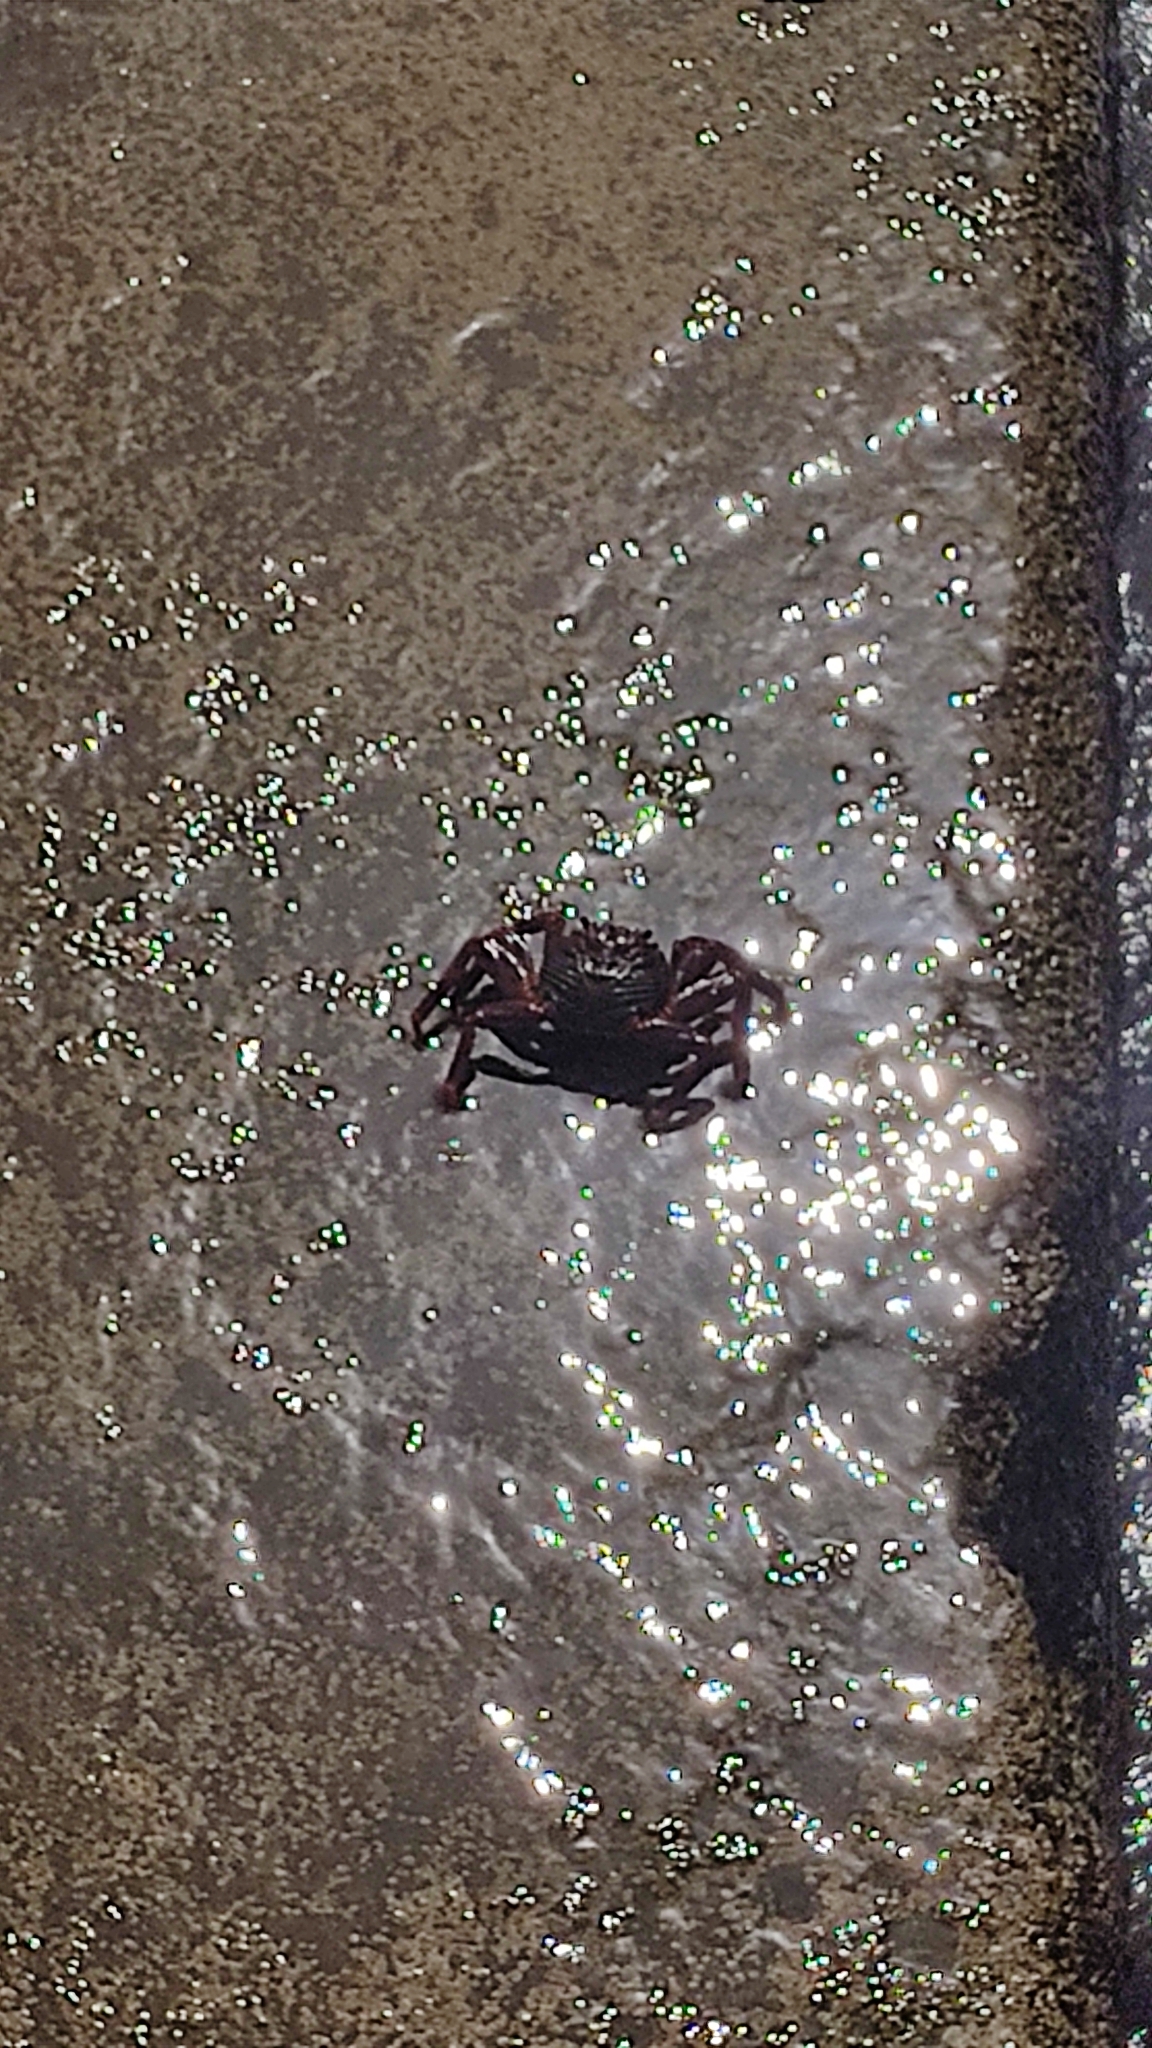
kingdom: Animalia
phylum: Arthropoda
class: Malacostraca
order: Decapoda
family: Grapsidae
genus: Grapsus
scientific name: Grapsus adscensionis
